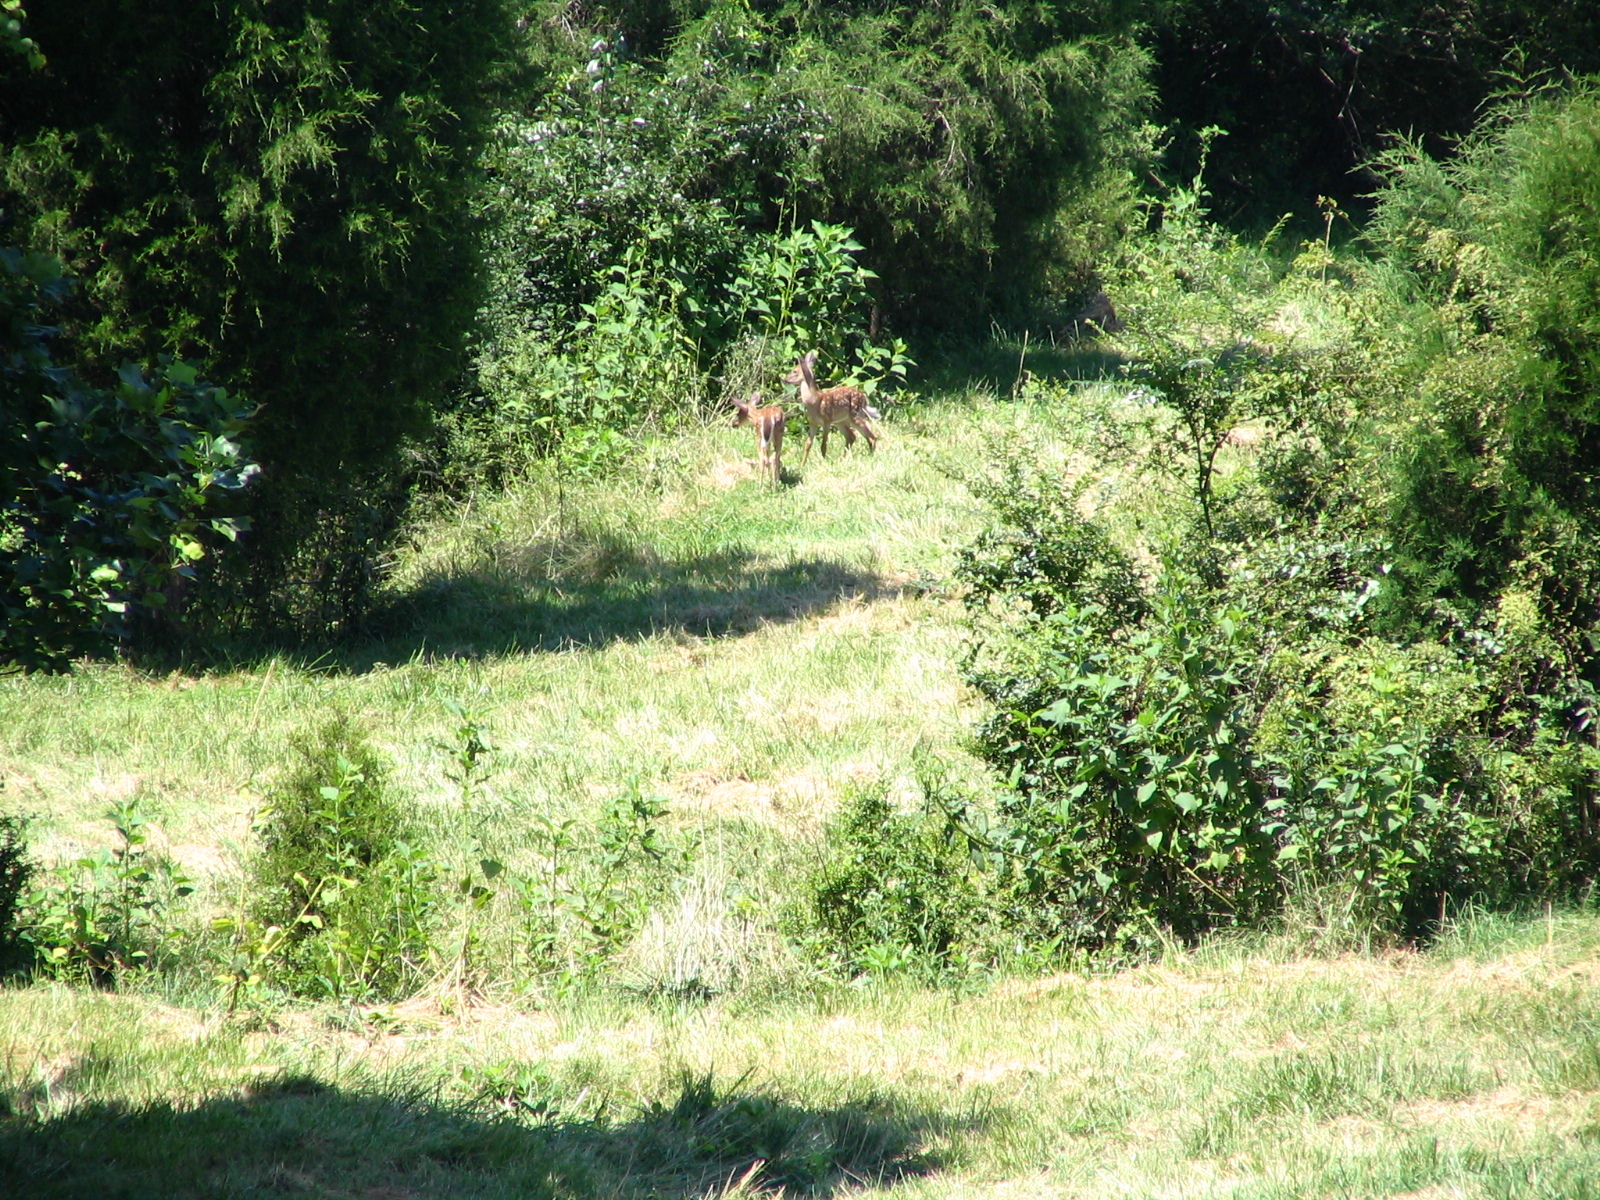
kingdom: Animalia
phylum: Chordata
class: Mammalia
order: Artiodactyla
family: Cervidae
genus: Odocoileus
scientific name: Odocoileus virginianus
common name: White-tailed deer
